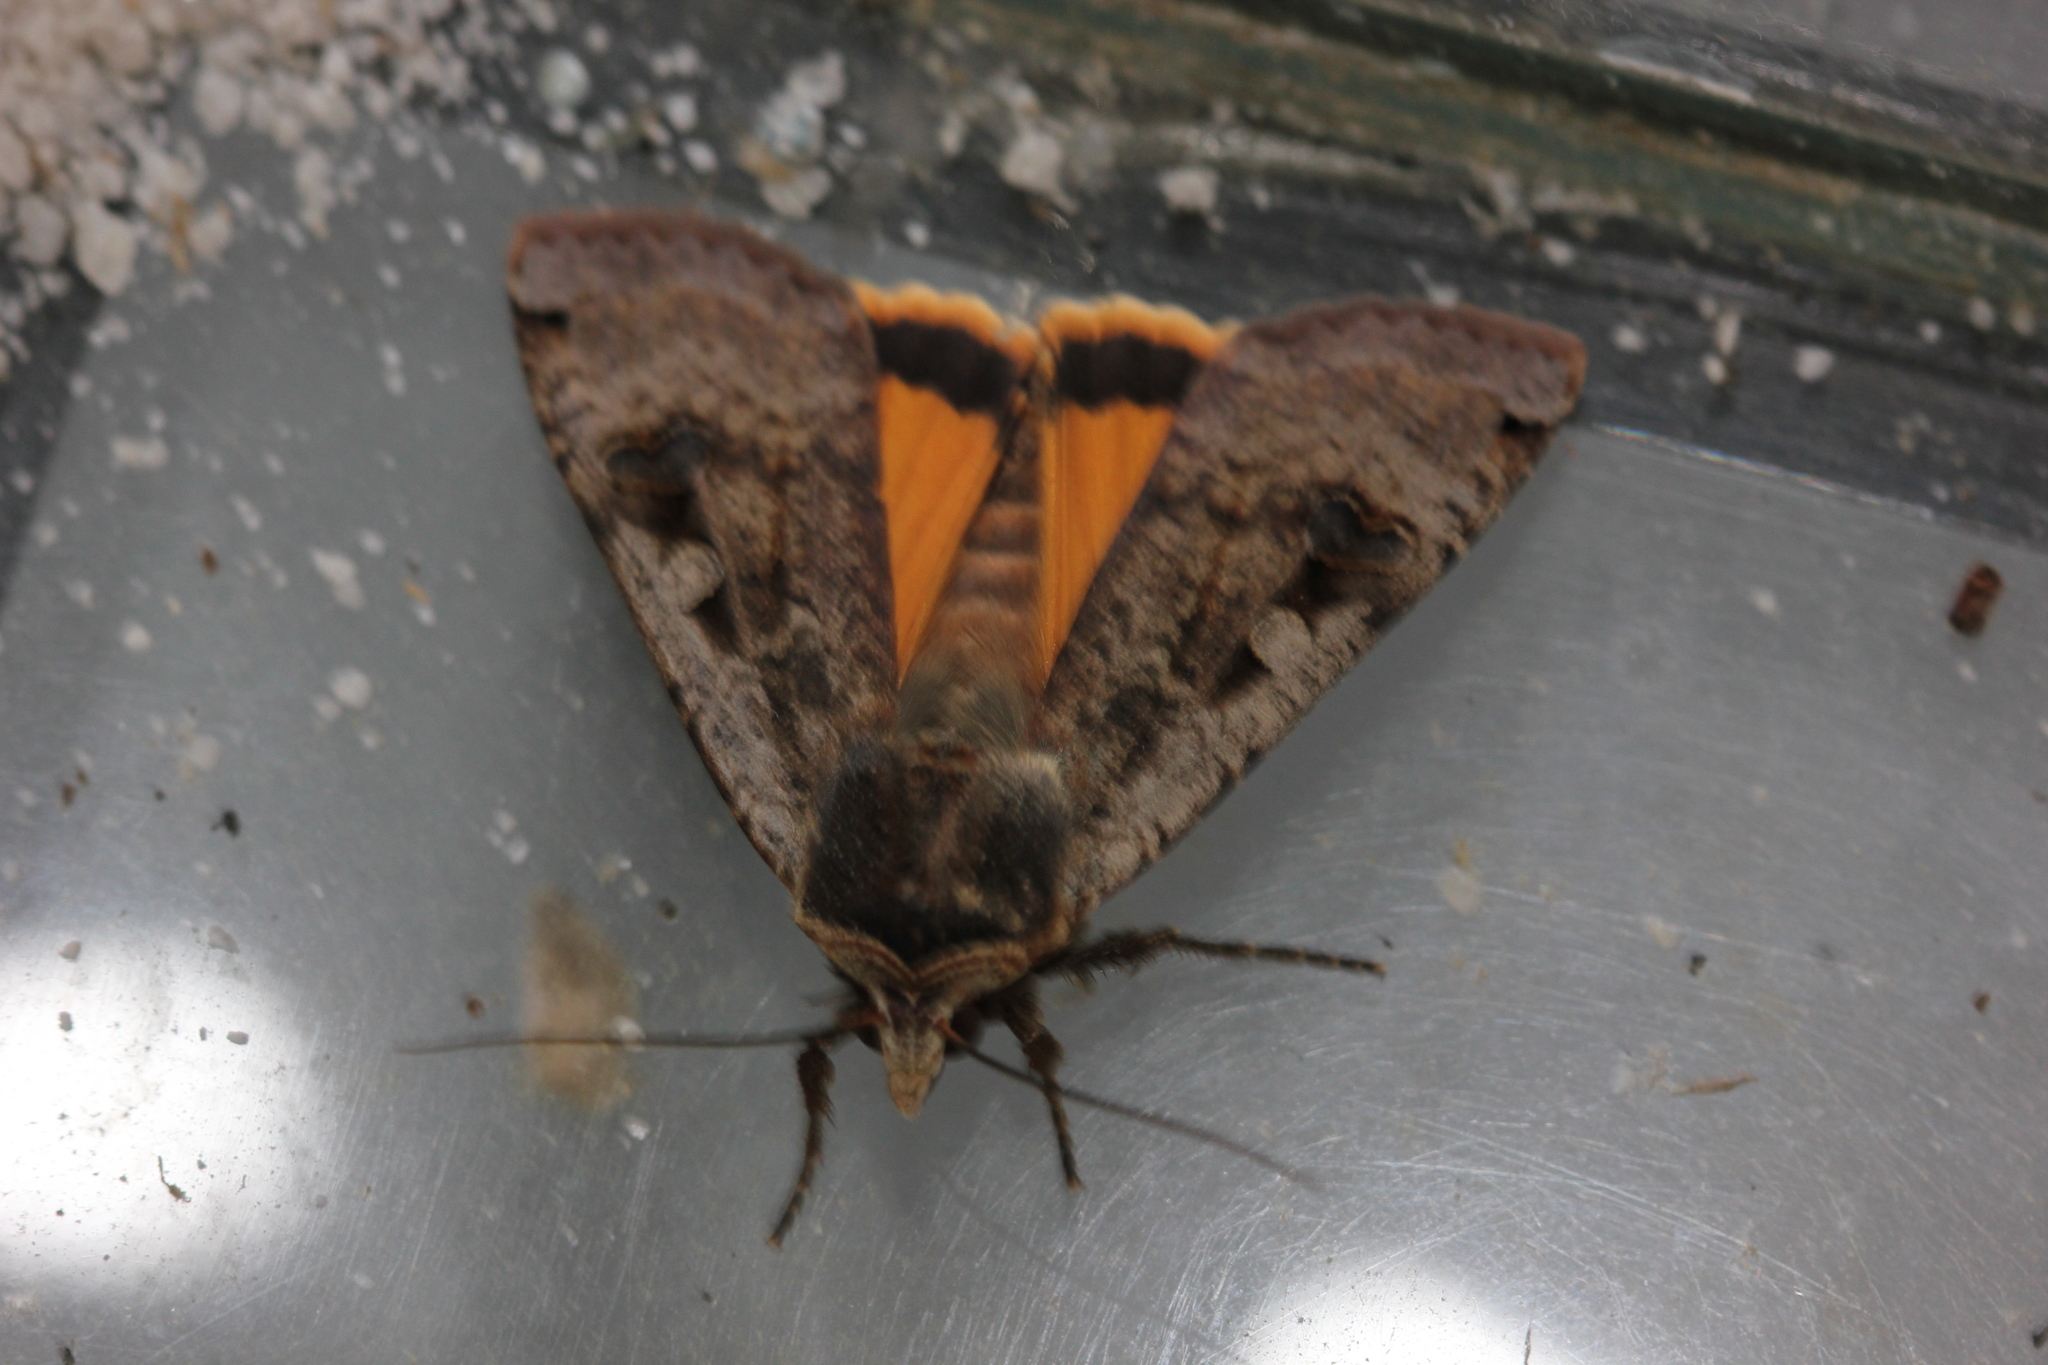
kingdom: Animalia
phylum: Arthropoda
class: Insecta
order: Lepidoptera
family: Noctuidae
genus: Noctua
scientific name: Noctua pronuba
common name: Large yellow underwing
